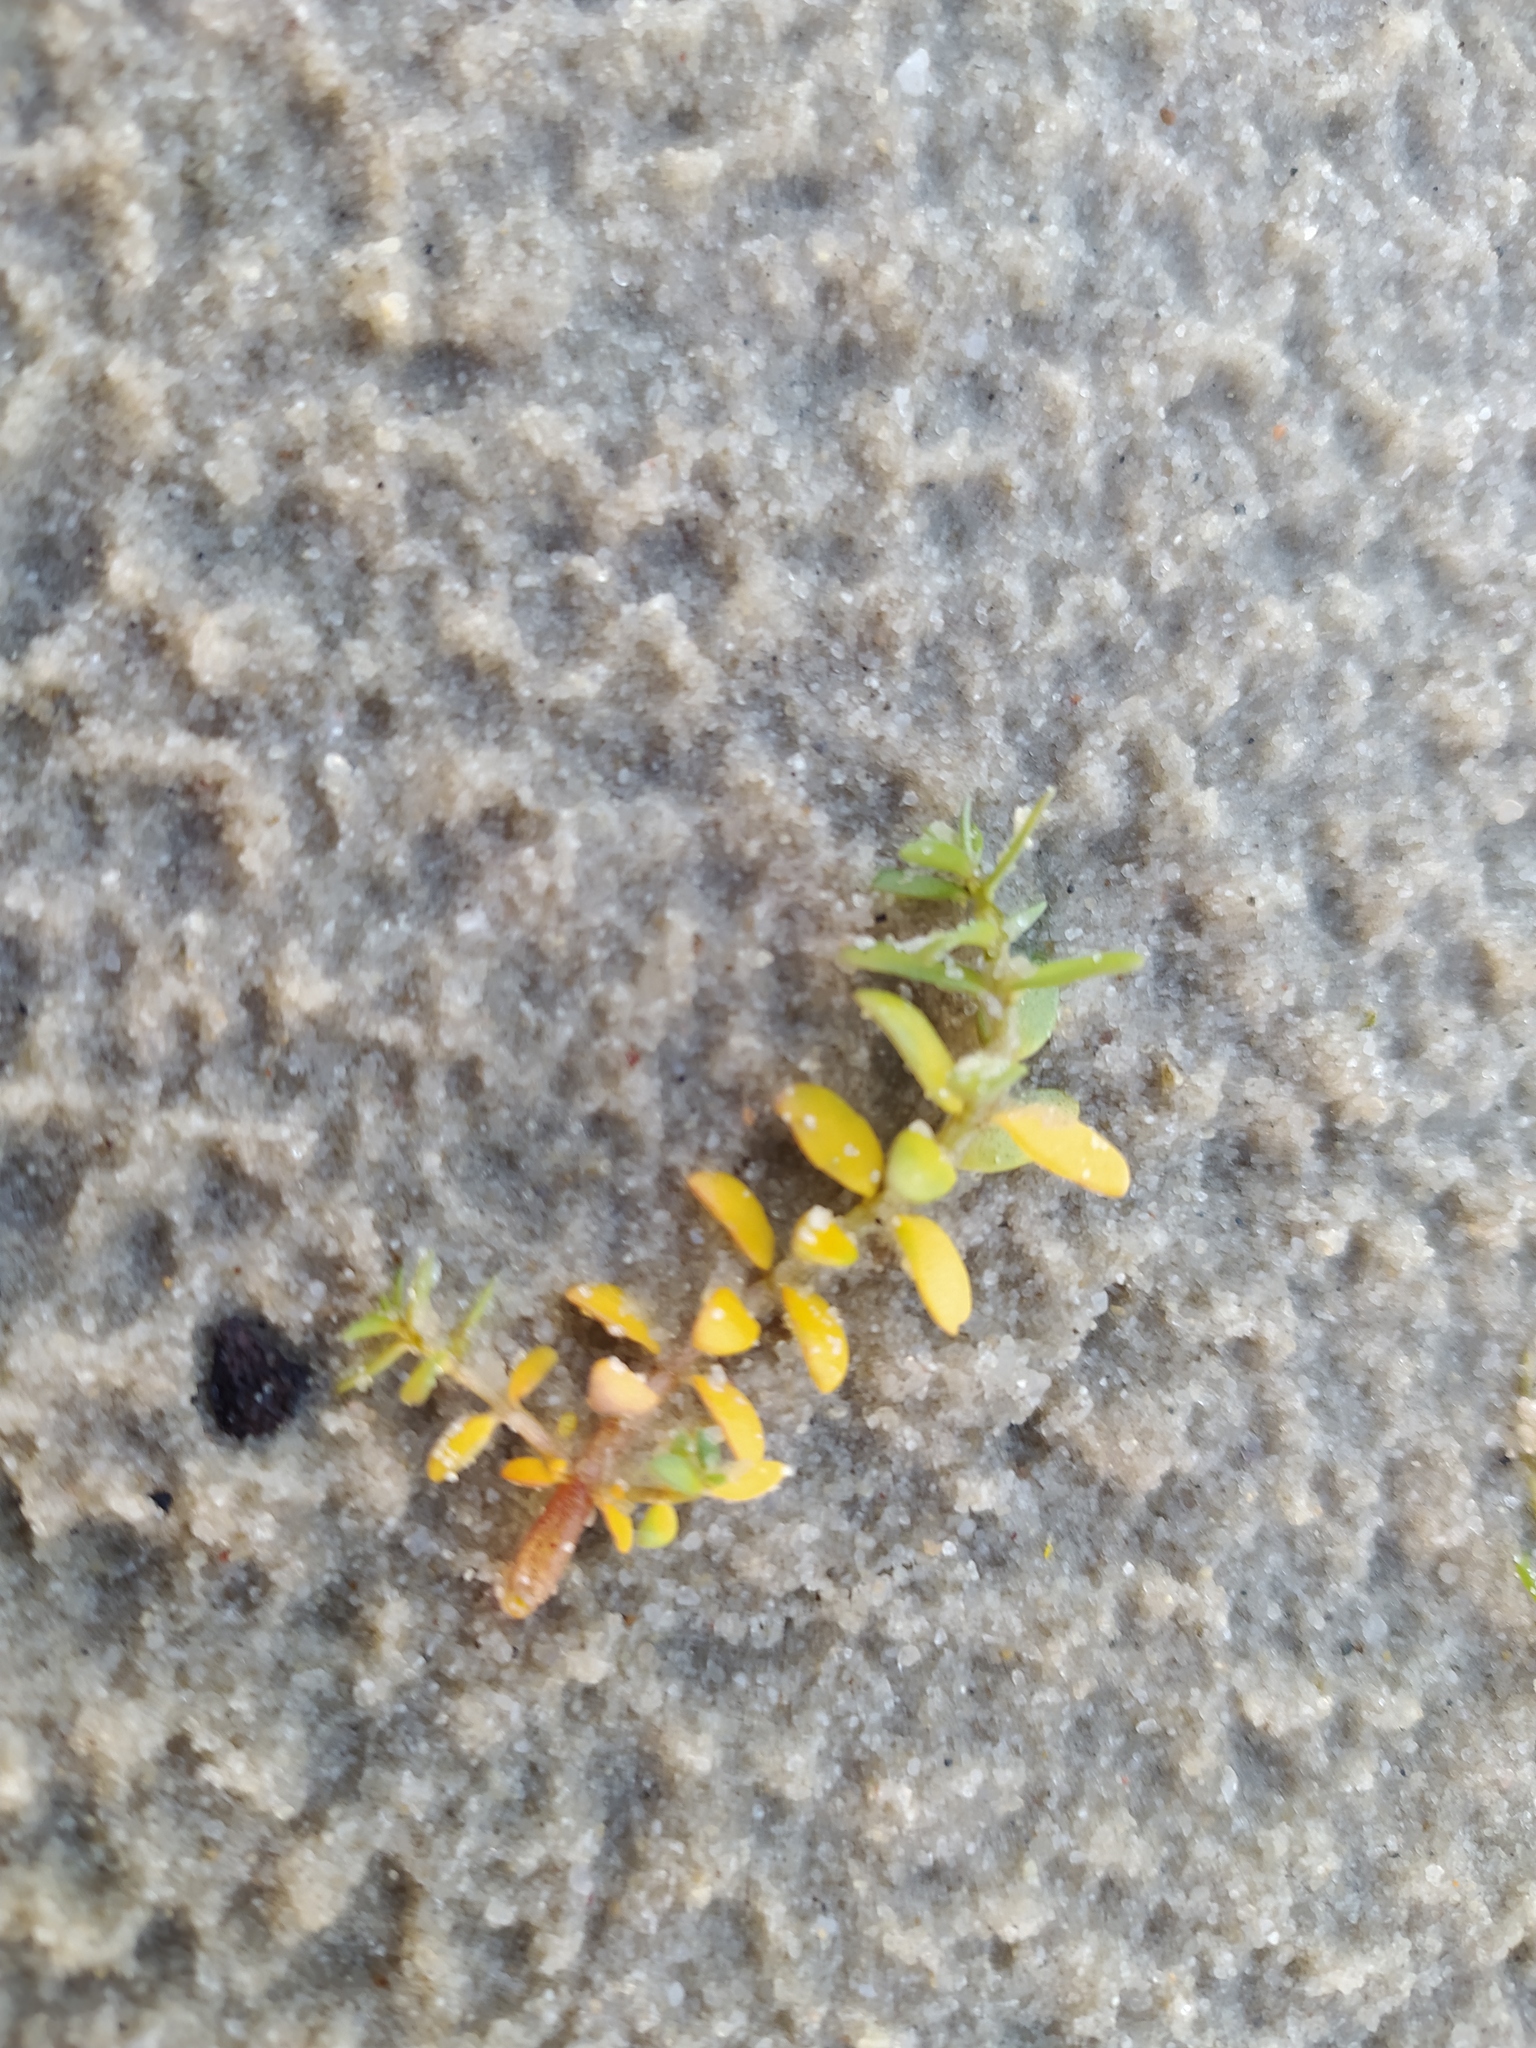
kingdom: Plantae
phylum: Tracheophyta
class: Magnoliopsida
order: Ericales
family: Primulaceae
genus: Lysimachia
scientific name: Lysimachia maritima
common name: Sea milkwort
